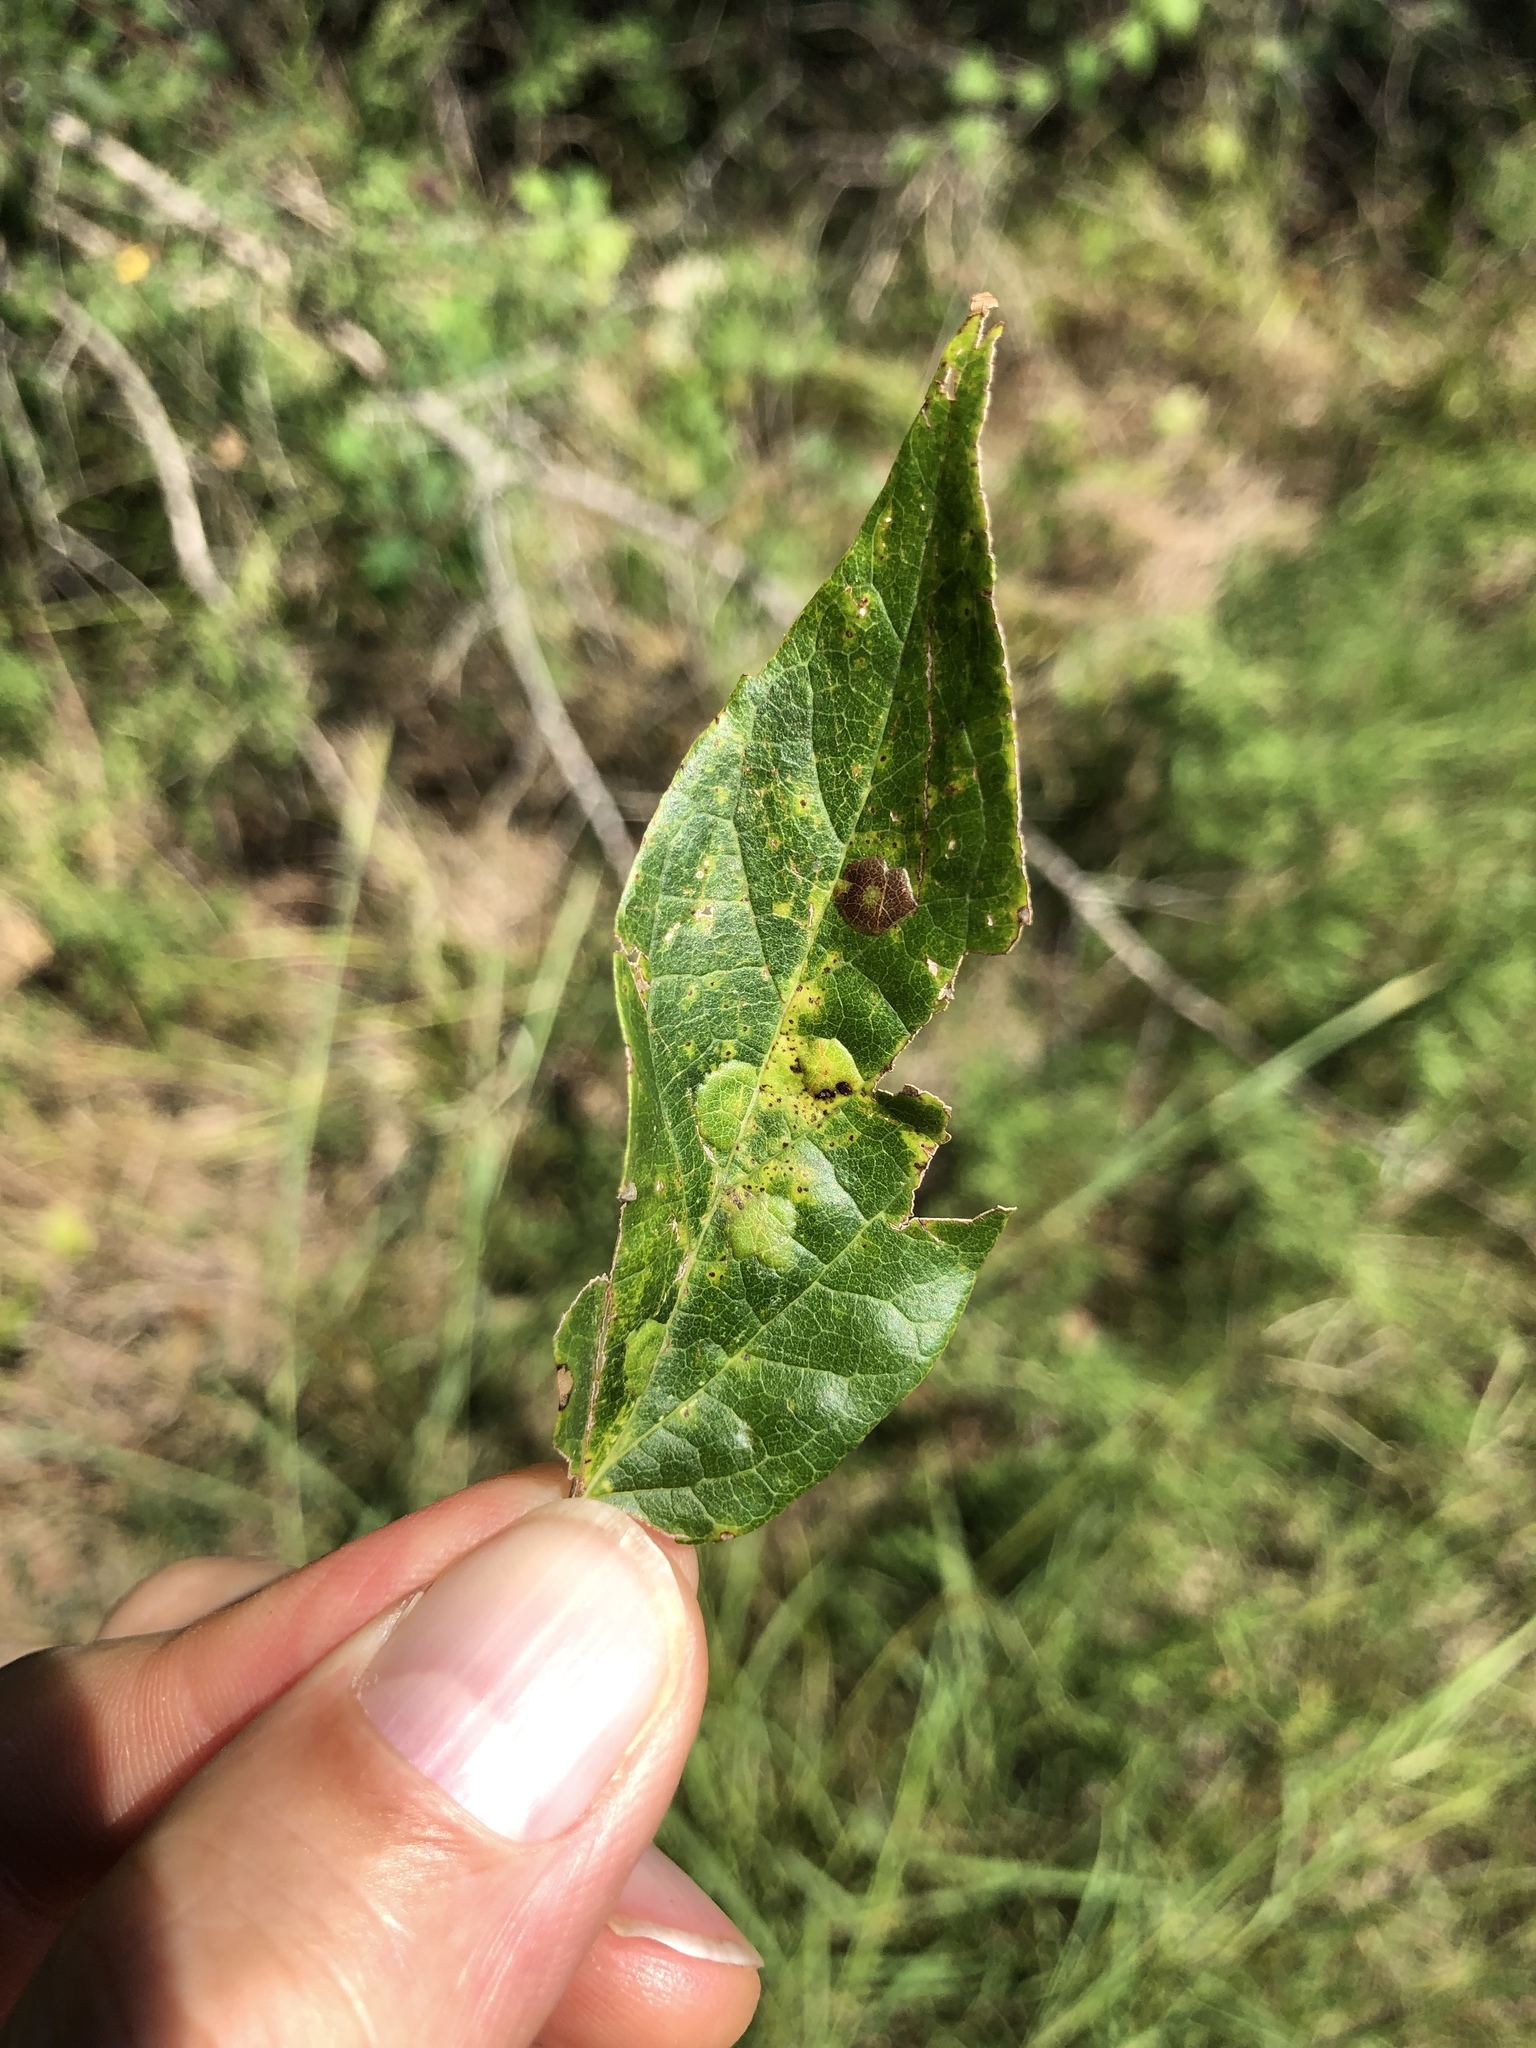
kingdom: Animalia
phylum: Arthropoda
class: Insecta
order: Hemiptera
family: Aphalaridae
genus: Pachypsylla
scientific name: Pachypsylla celtidisvesicula
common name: Hackberry blister gall psyllid
